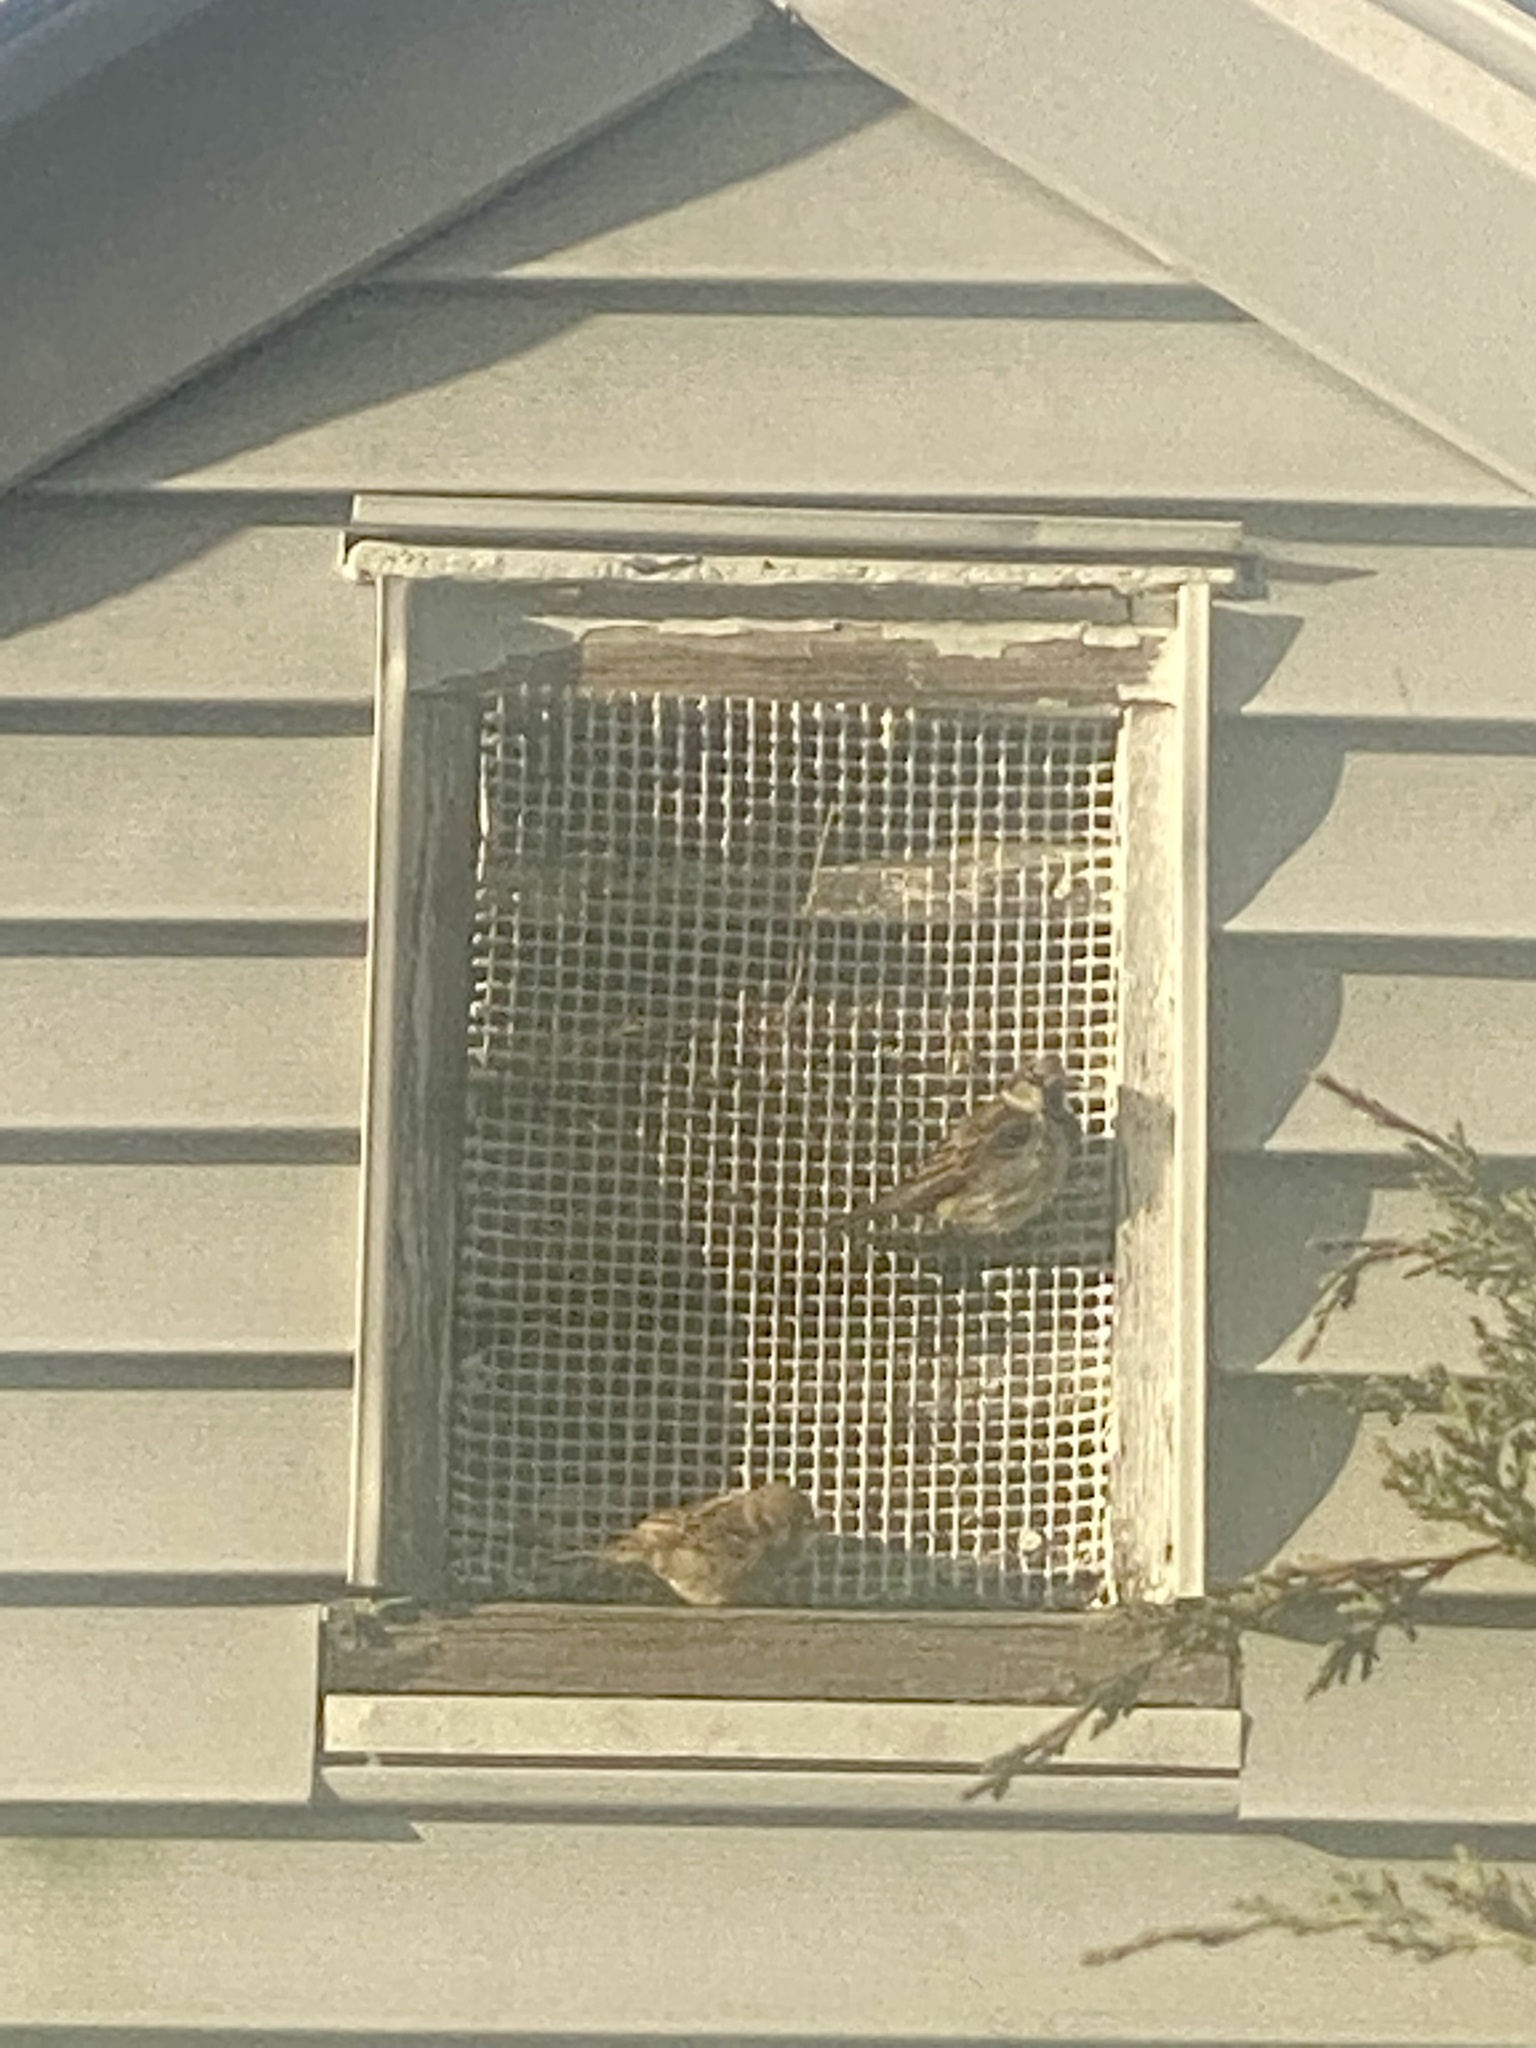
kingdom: Animalia
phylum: Chordata
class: Aves
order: Passeriformes
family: Passeridae
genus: Passer
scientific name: Passer domesticus
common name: House sparrow
